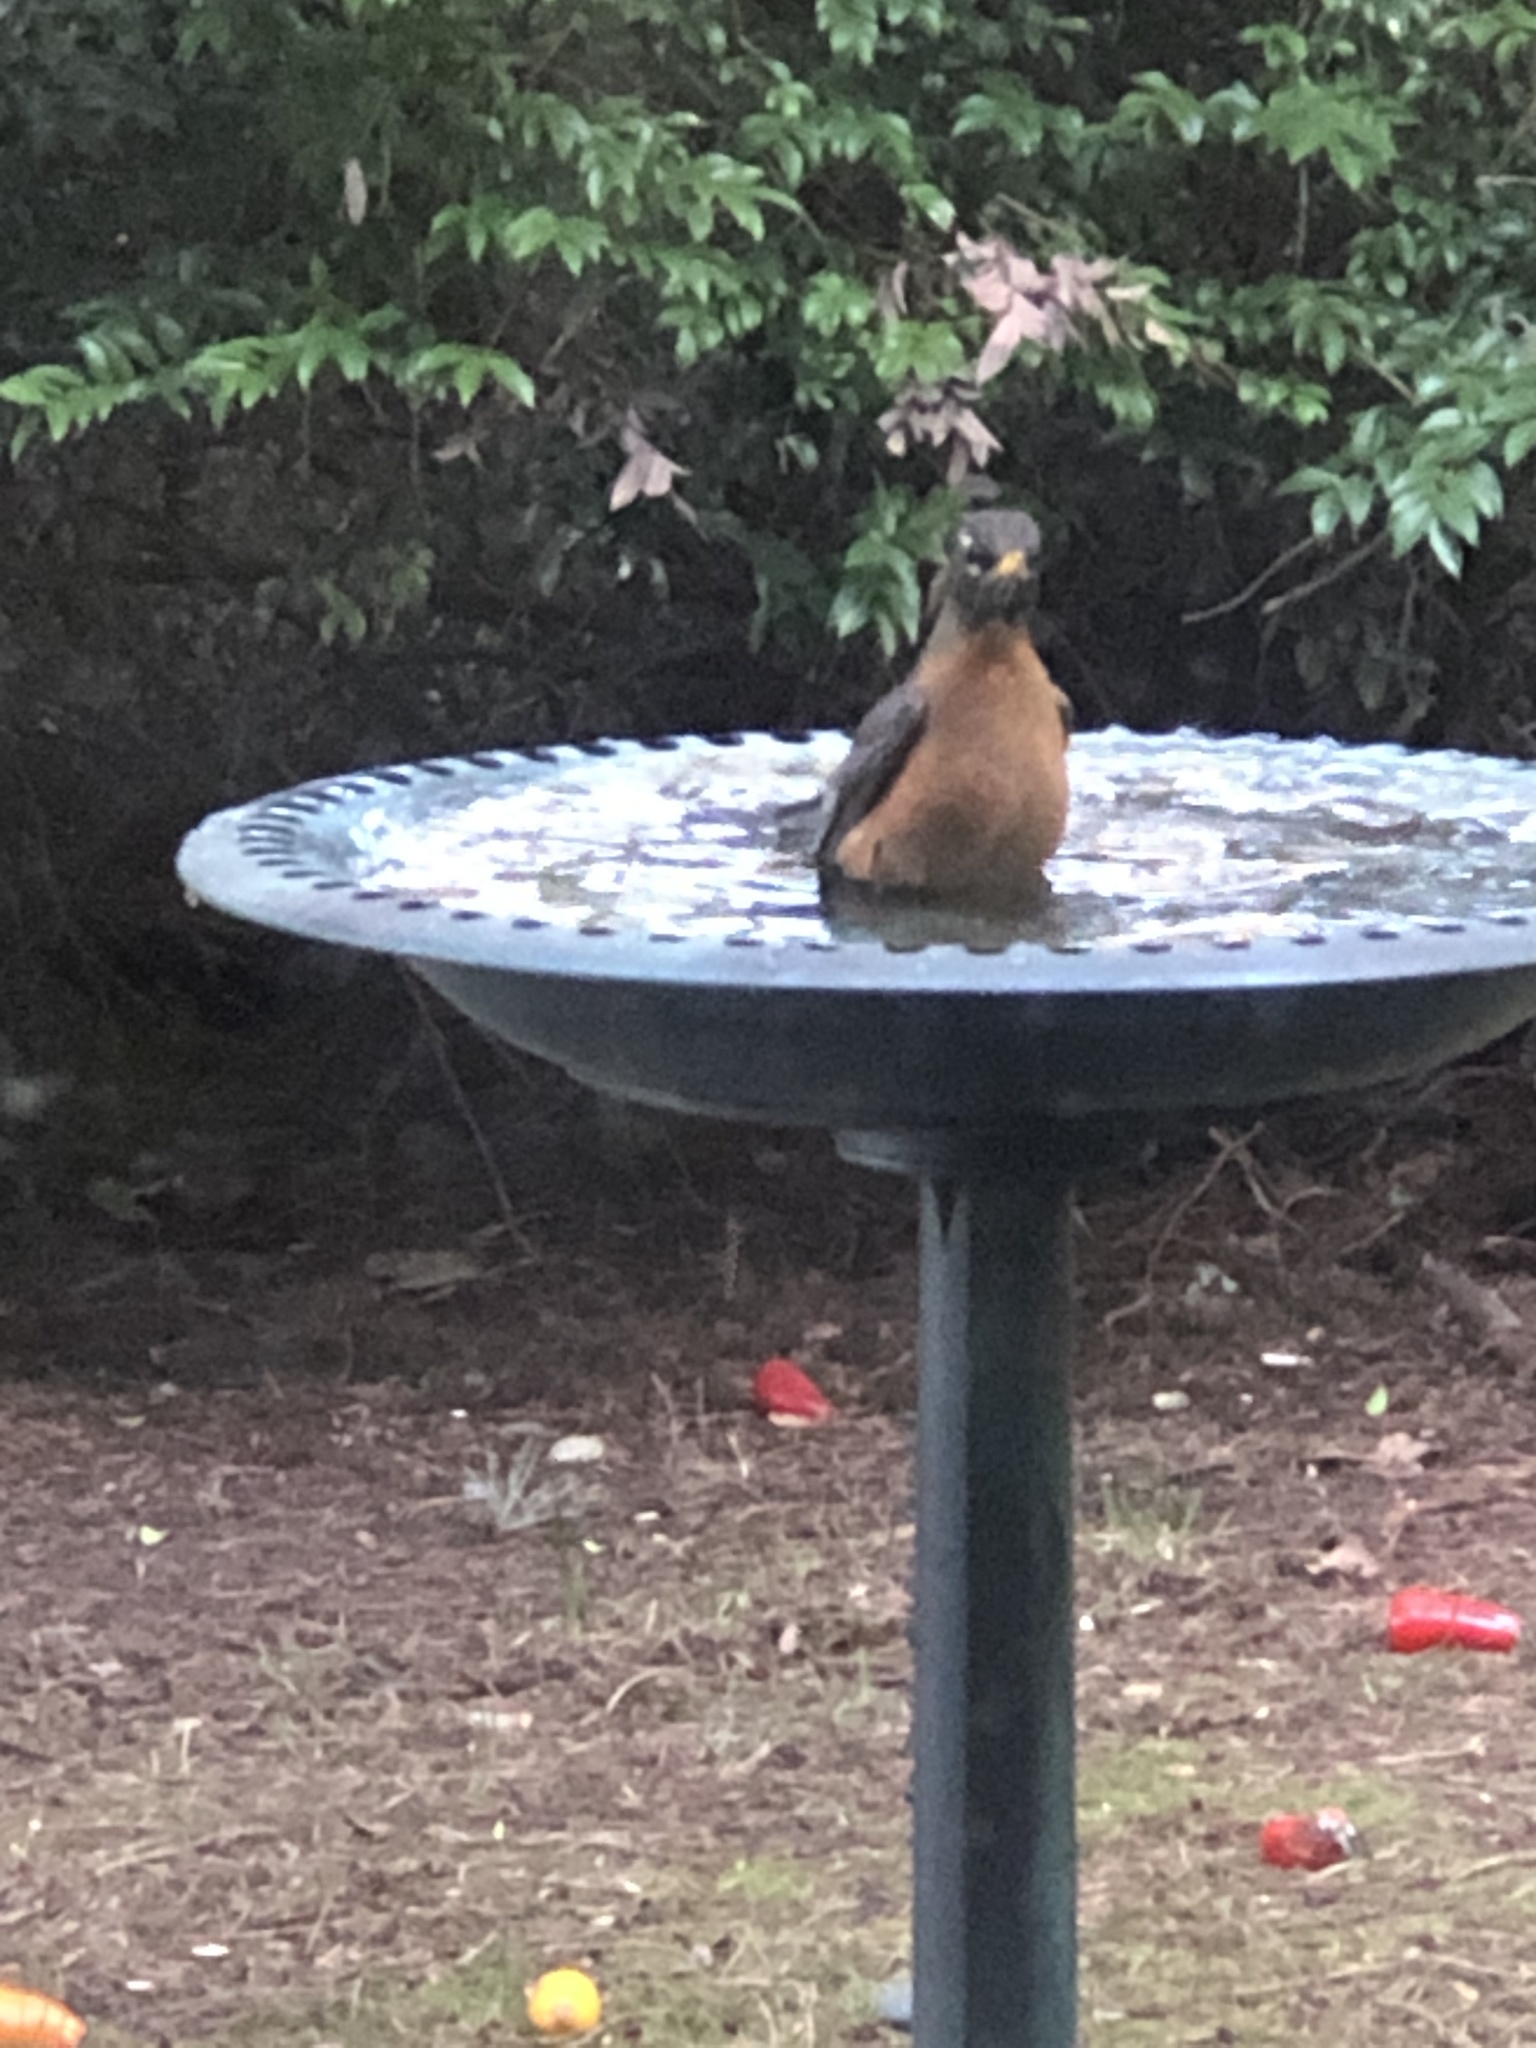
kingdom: Animalia
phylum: Chordata
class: Aves
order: Passeriformes
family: Turdidae
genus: Turdus
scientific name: Turdus migratorius
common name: American robin
